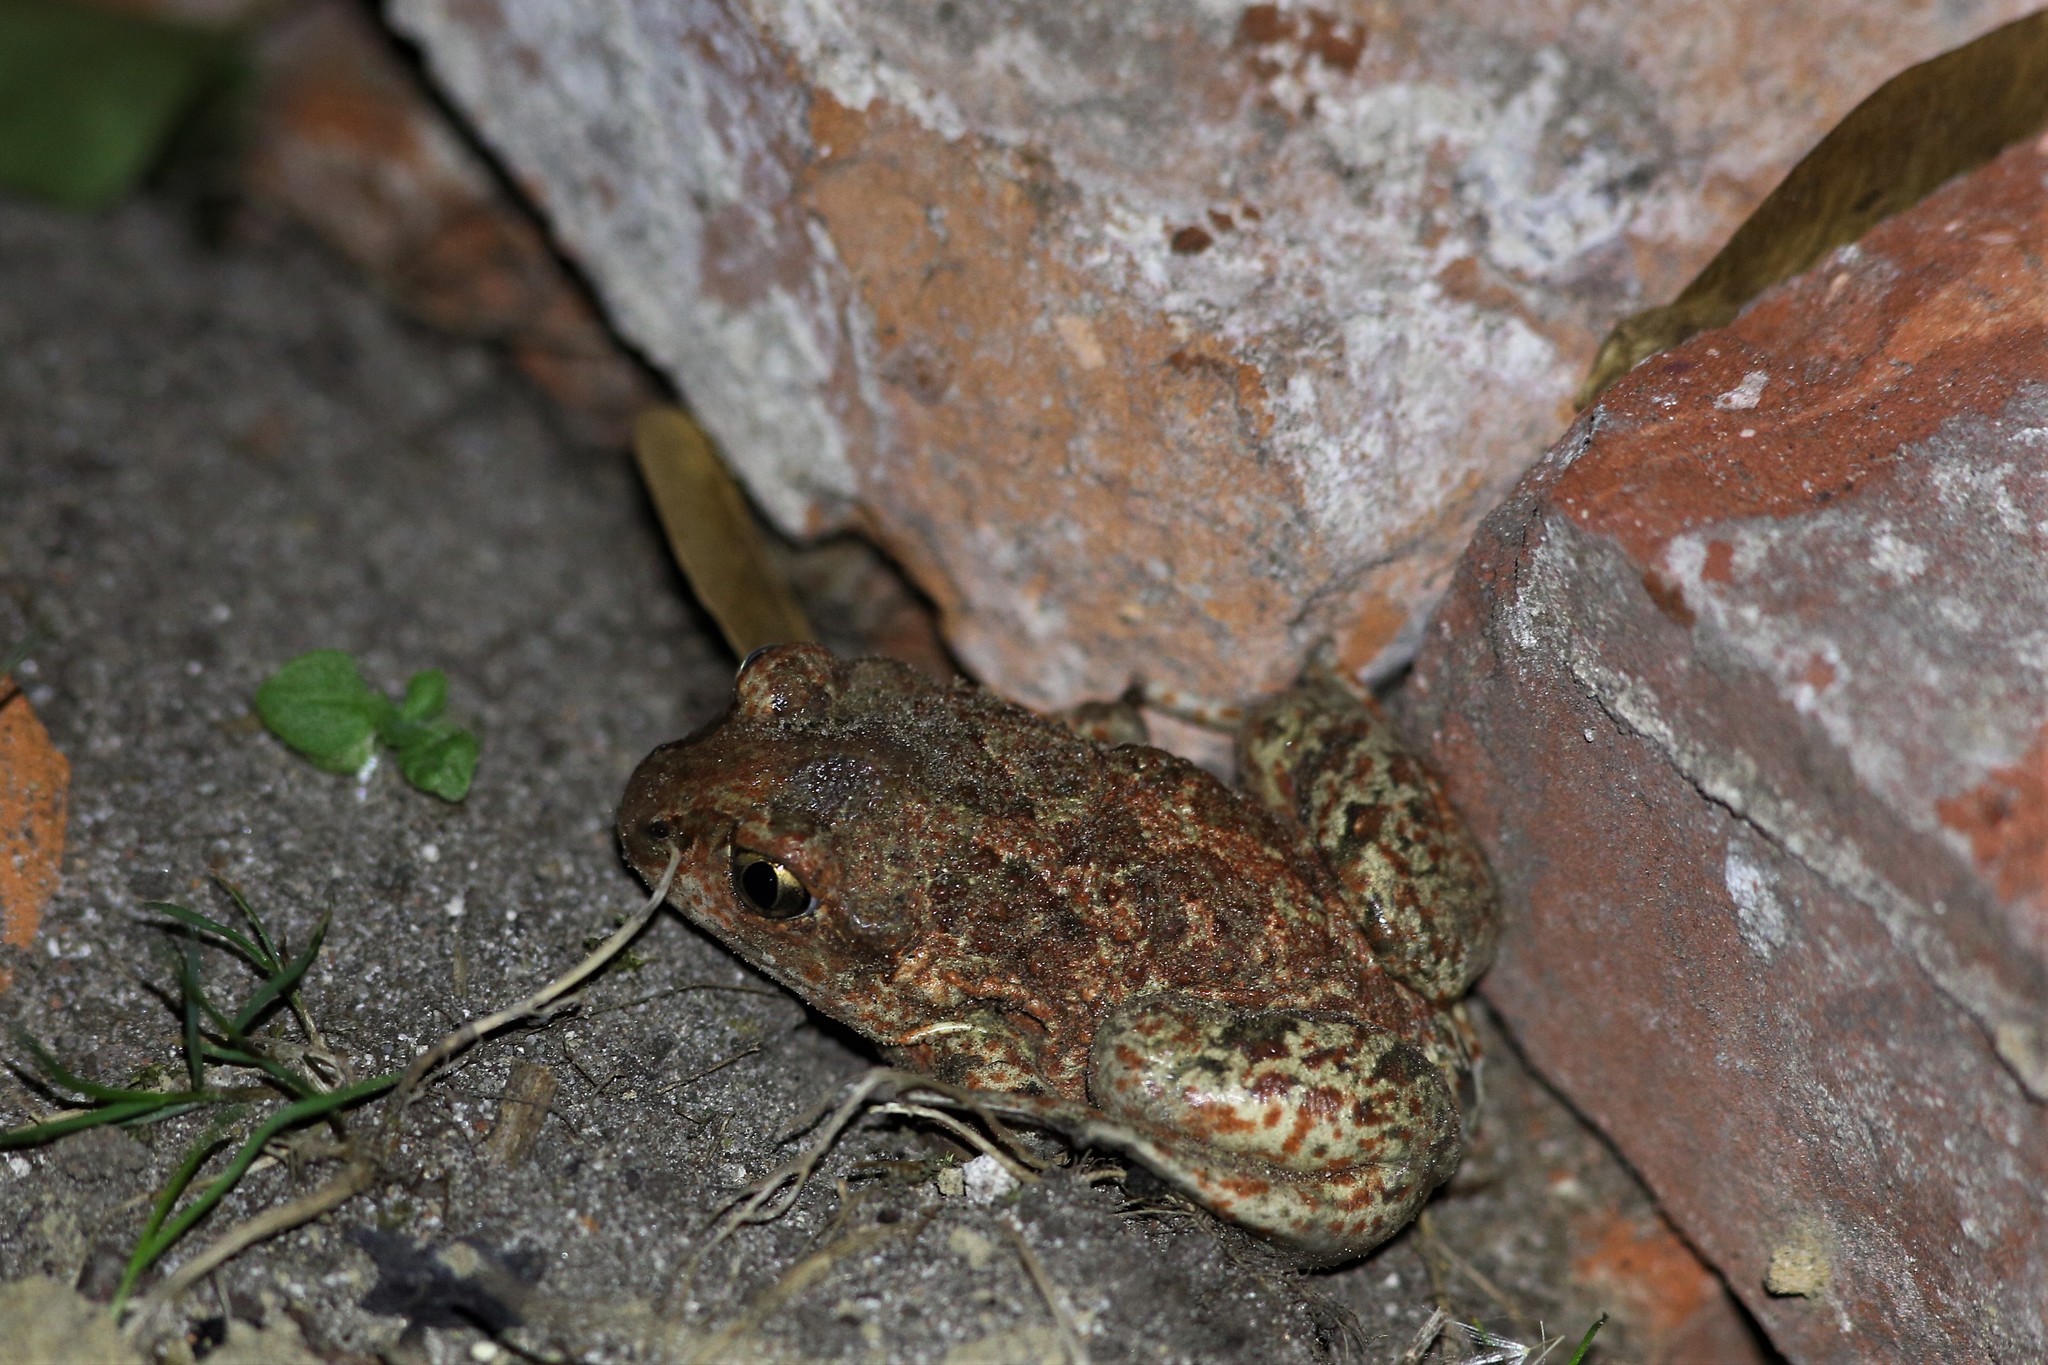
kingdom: Animalia
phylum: Chordata
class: Amphibia
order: Anura
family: Pelobatidae
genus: Pelobates
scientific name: Pelobates fuscus
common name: Common eurasian spadefoot toad
